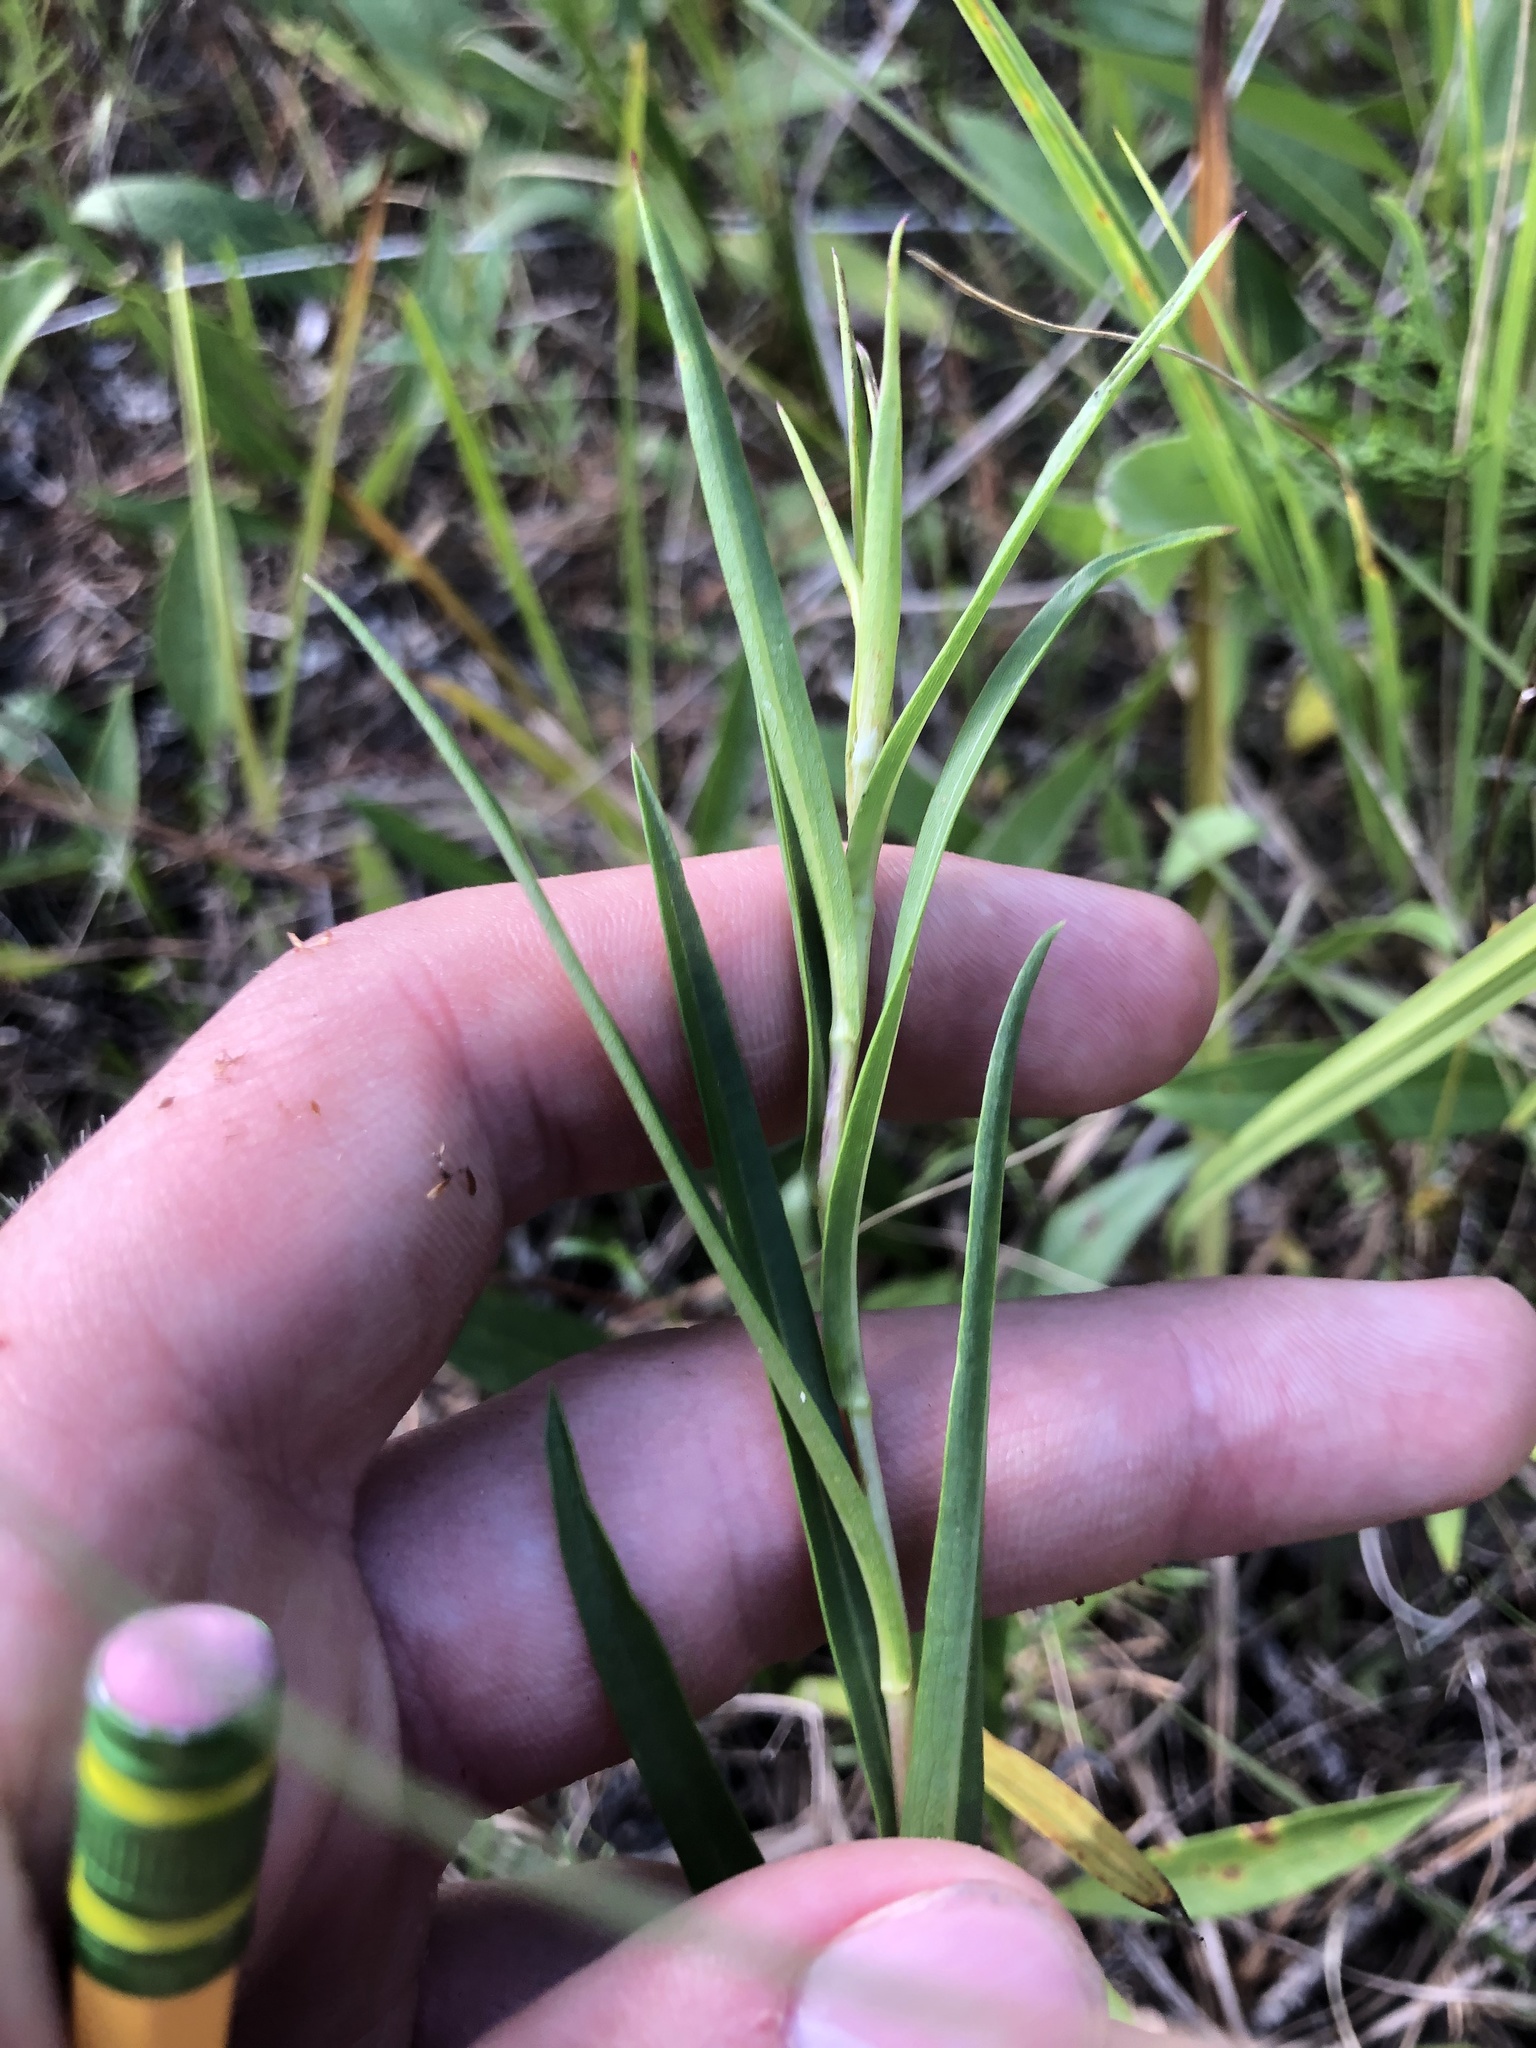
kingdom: Plantae
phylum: Tracheophyta
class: Magnoliopsida
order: Asterales
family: Asteraceae
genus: Eurybia
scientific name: Eurybia hemispherica
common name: Showy aster
